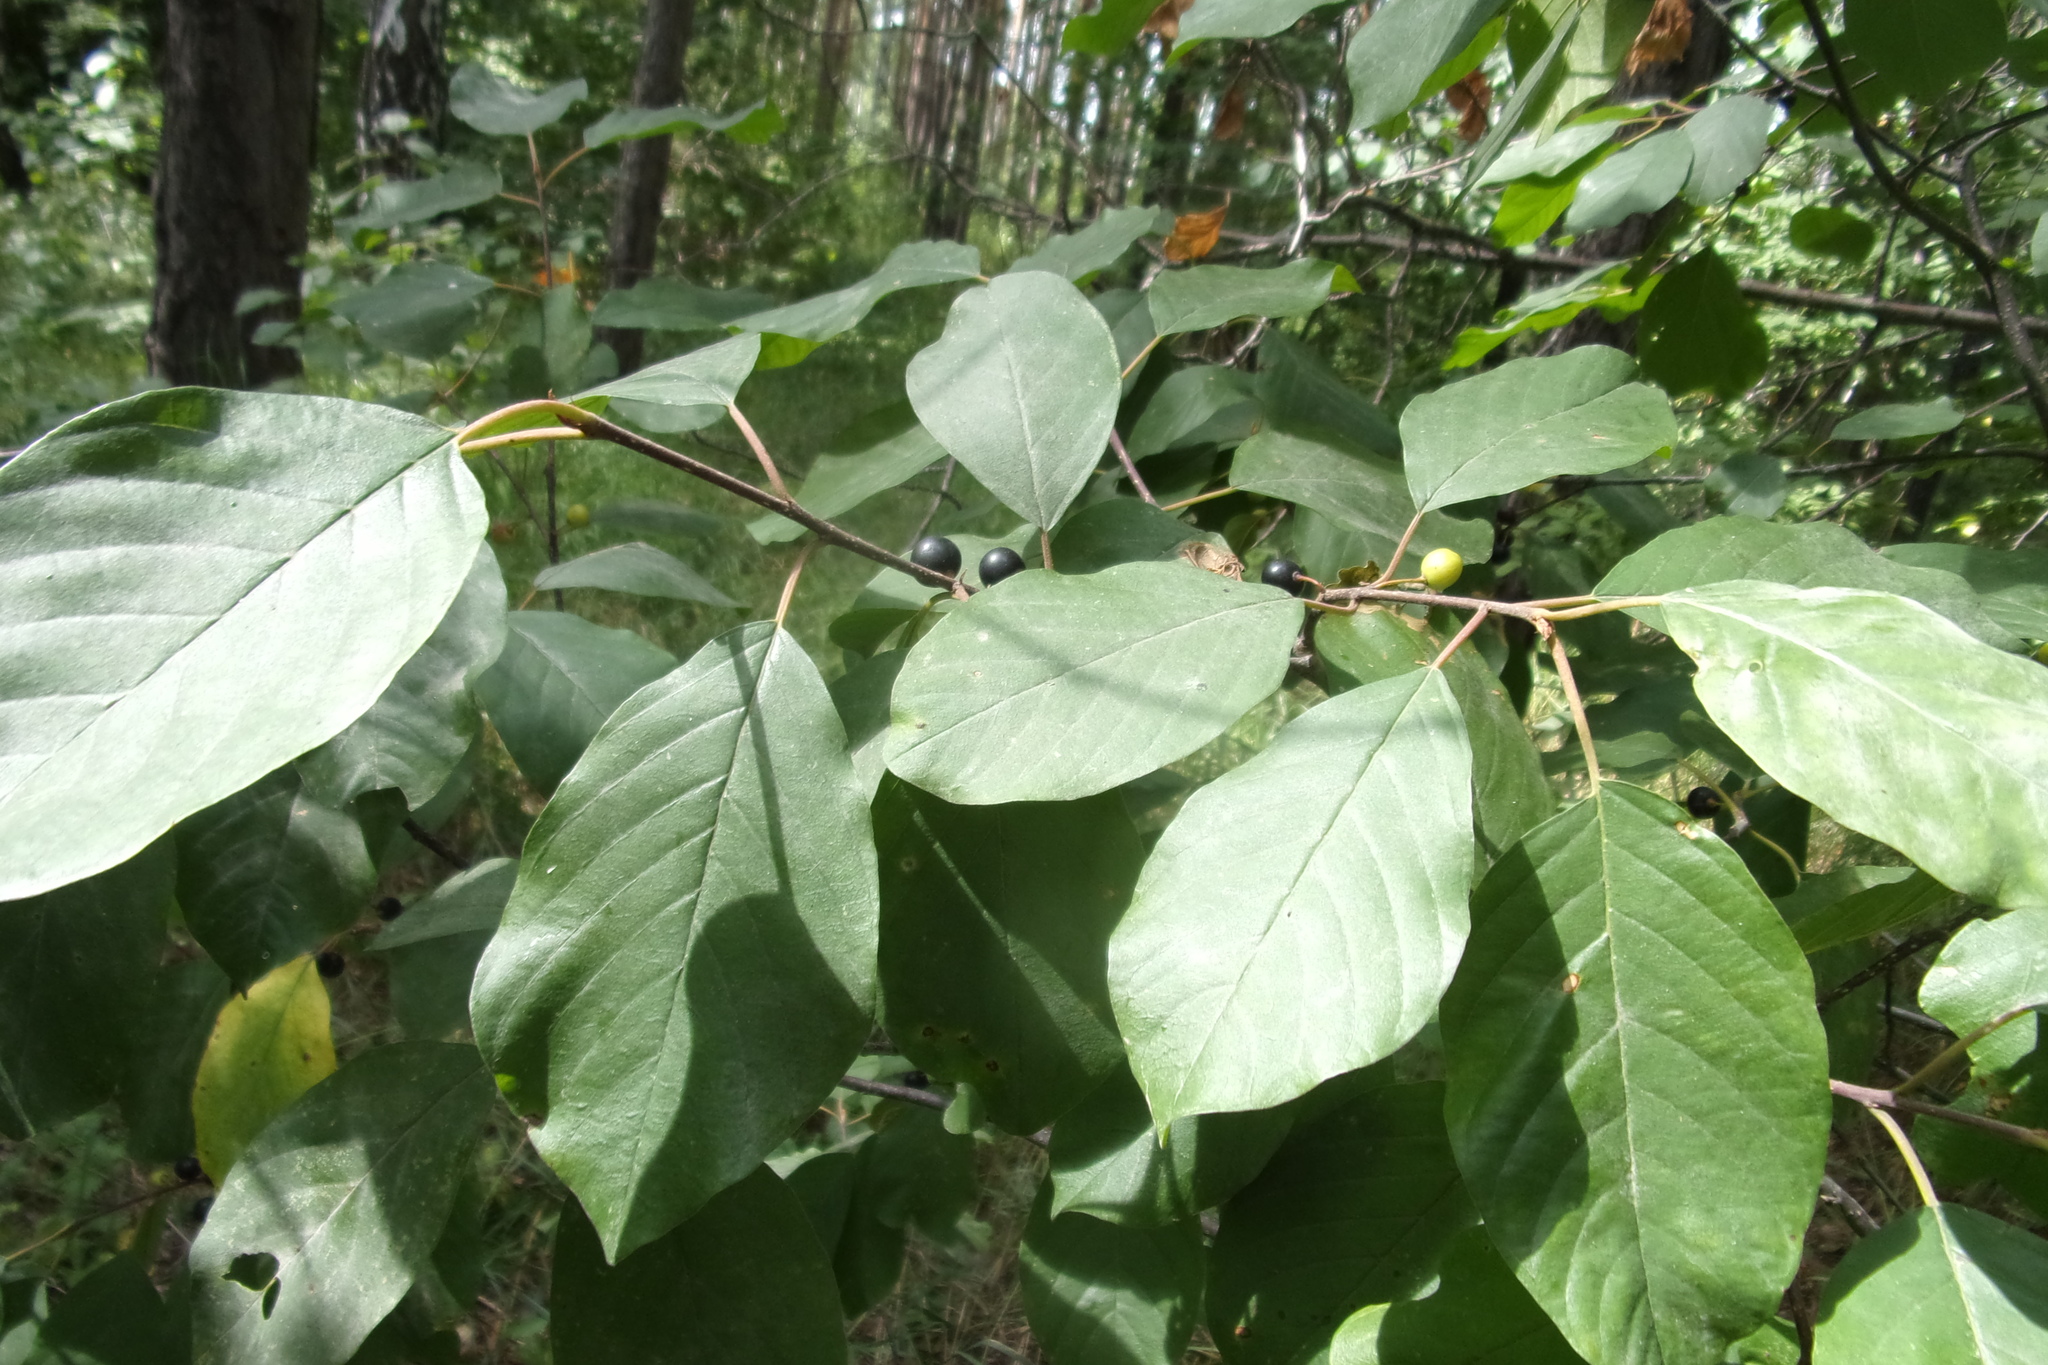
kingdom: Plantae
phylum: Tracheophyta
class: Magnoliopsida
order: Rosales
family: Rhamnaceae
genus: Frangula
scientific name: Frangula alnus
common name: Alder buckthorn
